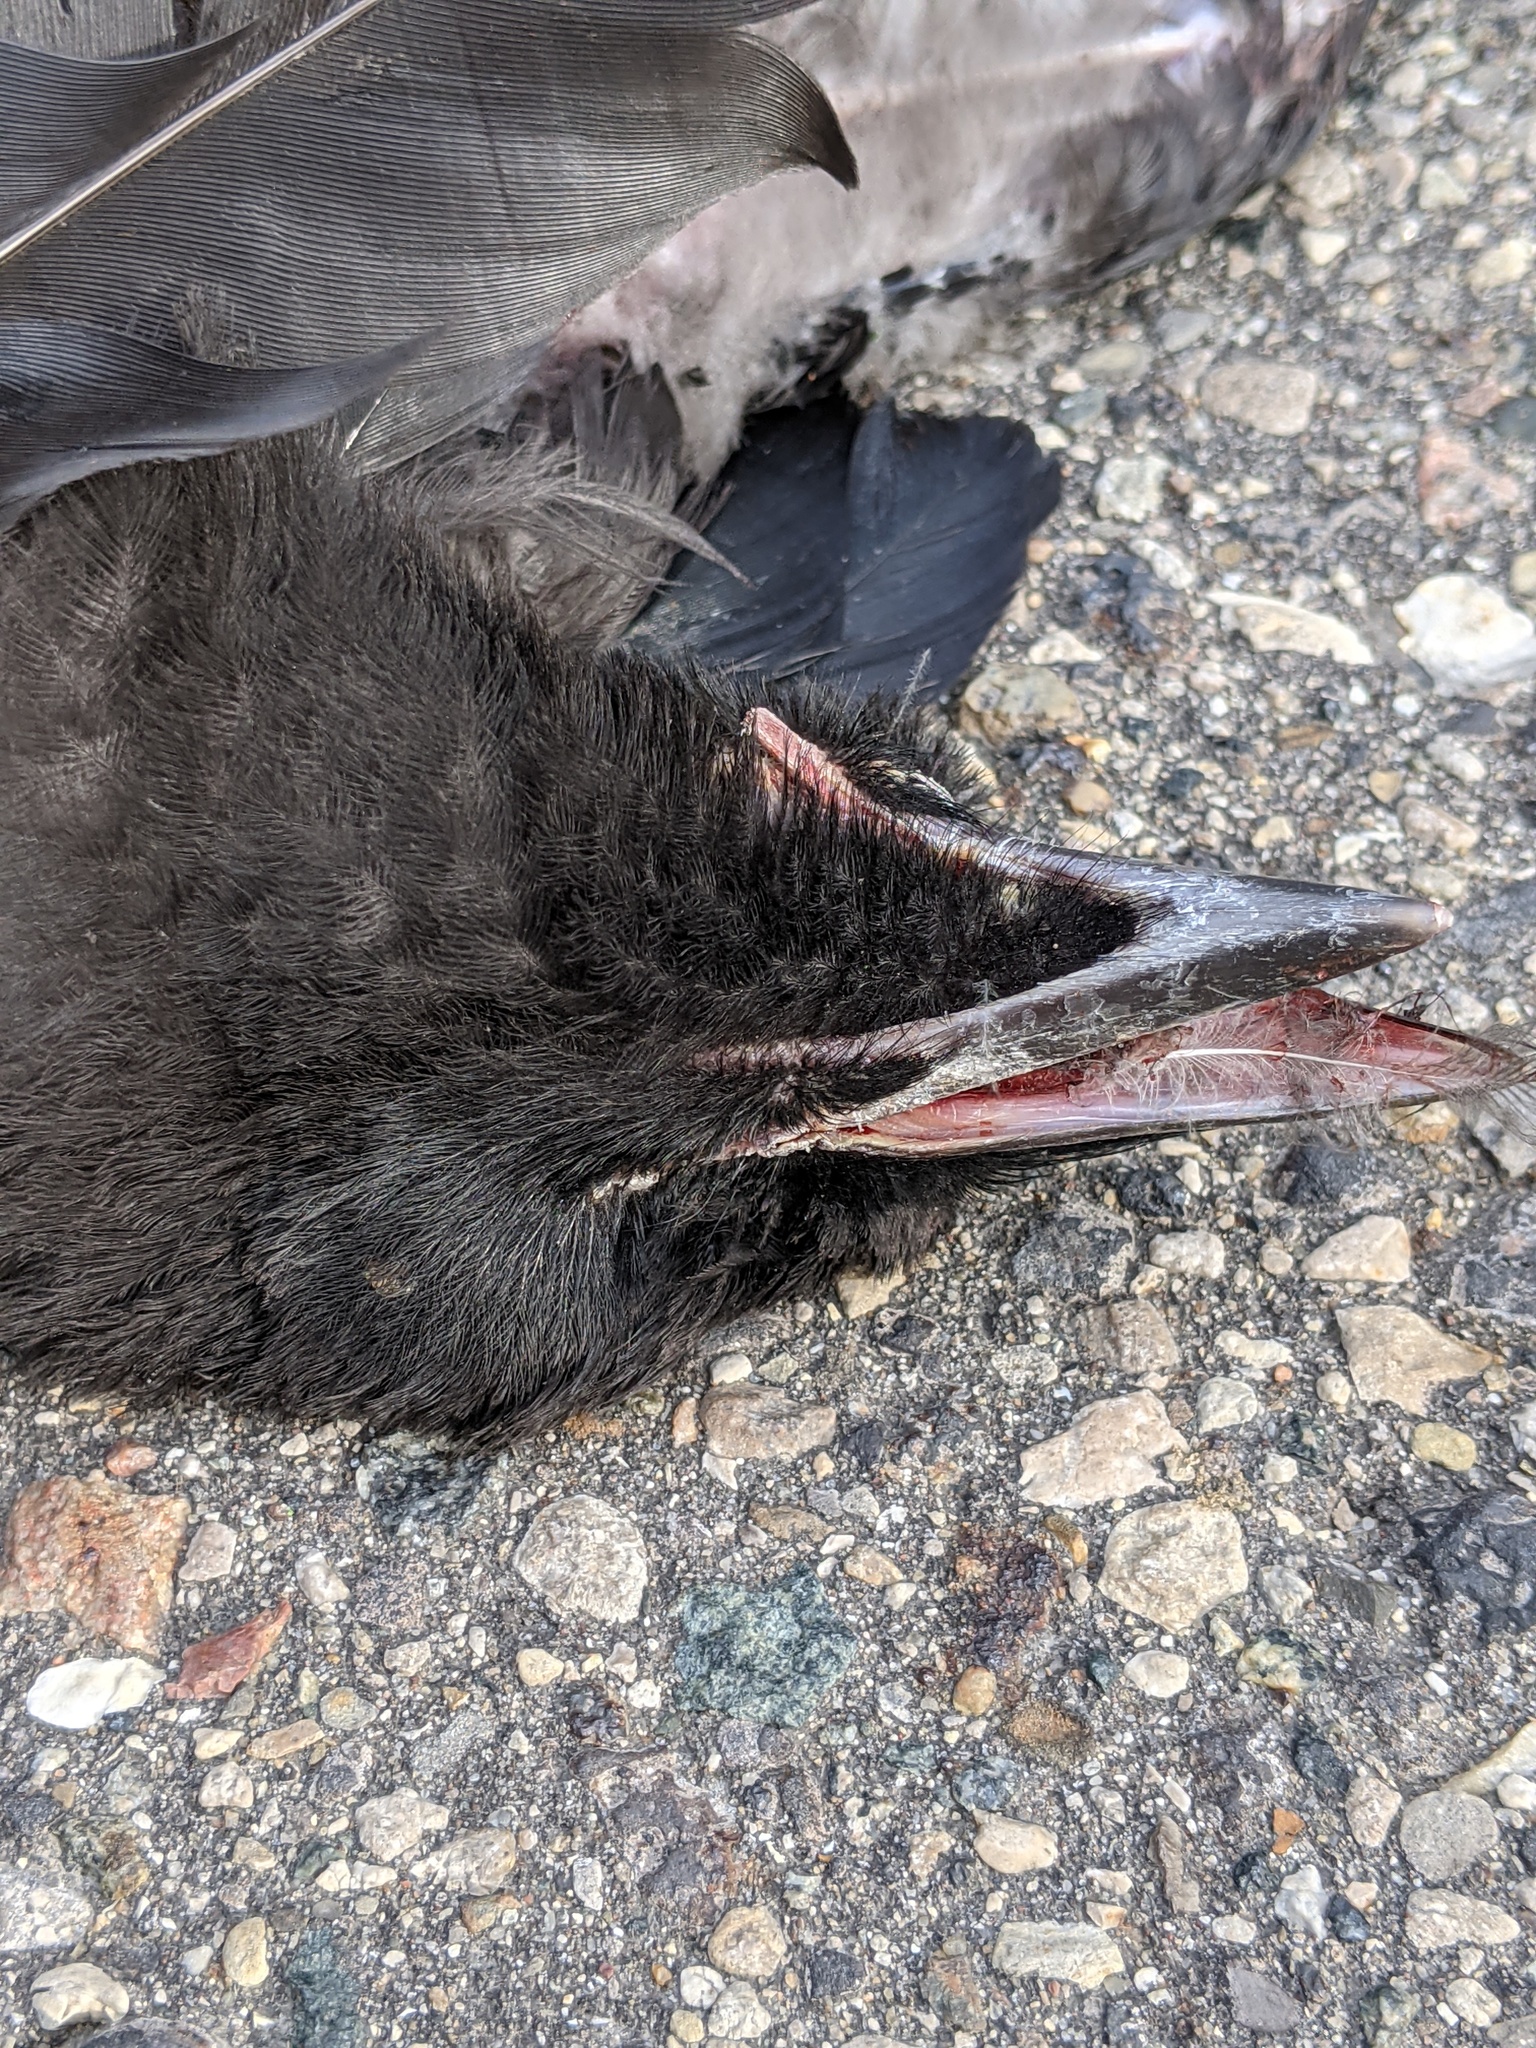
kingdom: Animalia
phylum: Chordata
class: Aves
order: Passeriformes
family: Corvidae
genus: Corvus
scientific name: Corvus brachyrhynchos
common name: American crow
